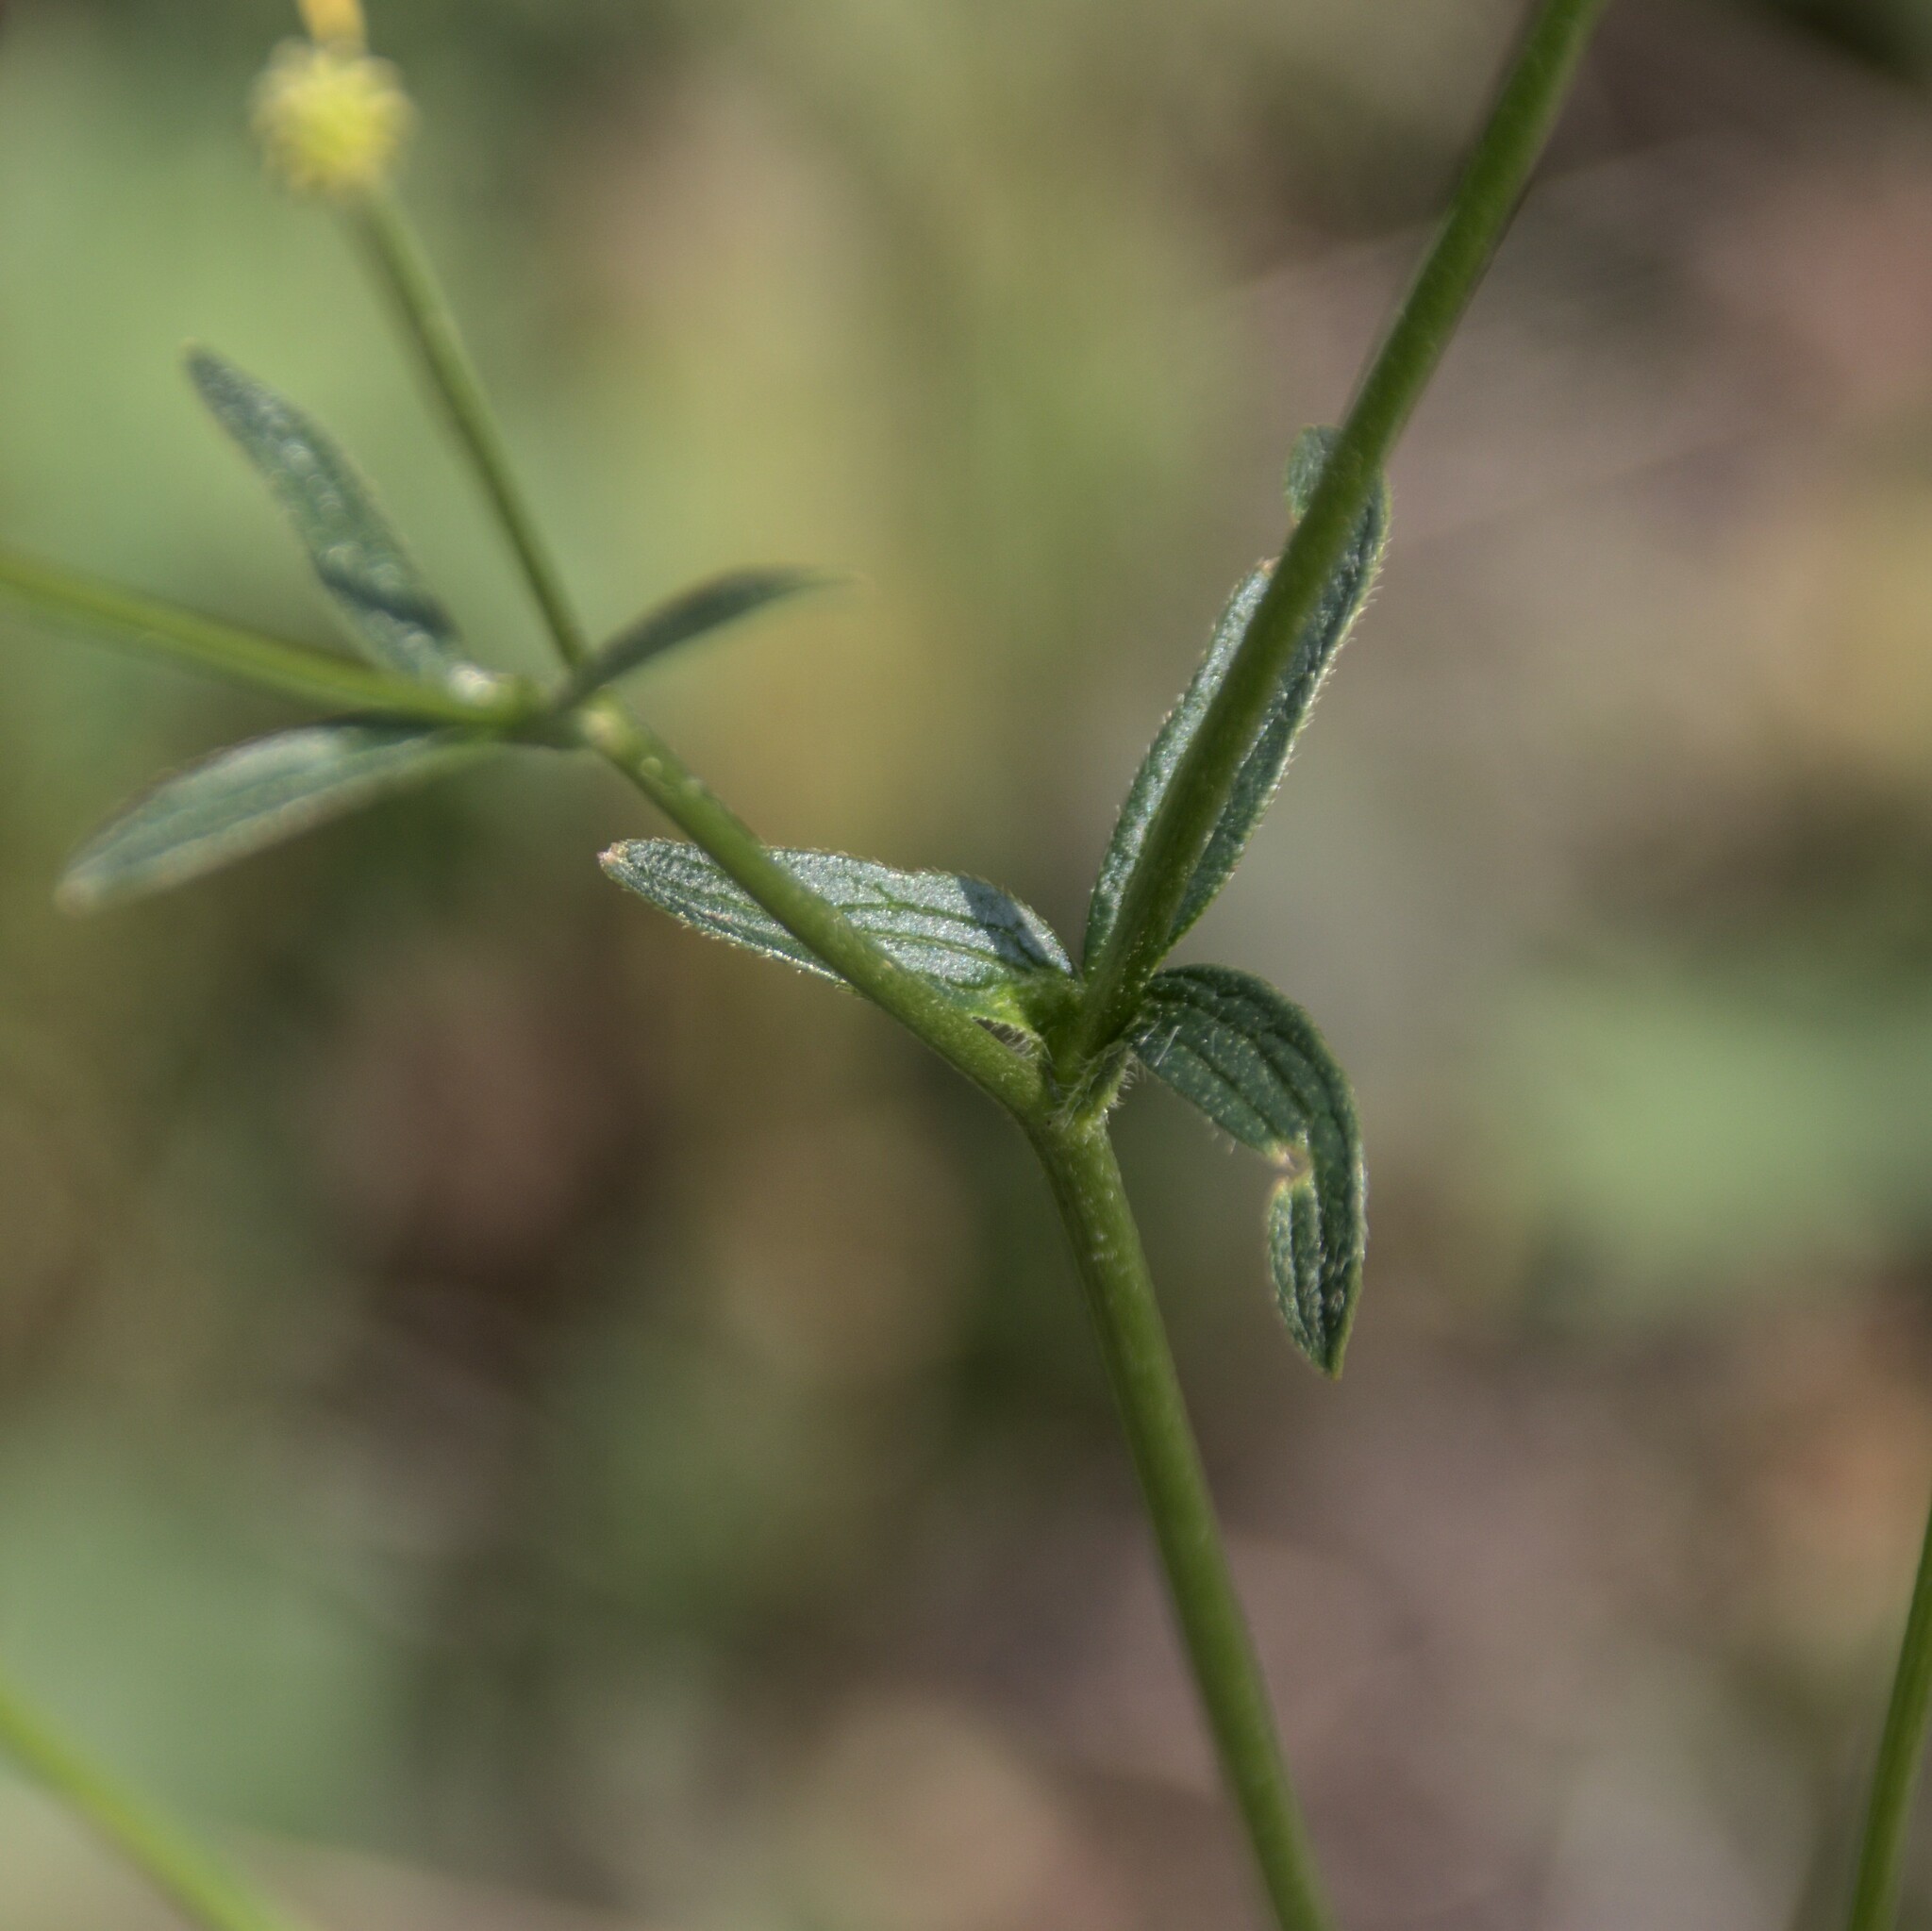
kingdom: Plantae
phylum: Tracheophyta
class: Magnoliopsida
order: Ranunculales
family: Ranunculaceae
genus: Ranunculus
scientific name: Ranunculus polyanthemos
